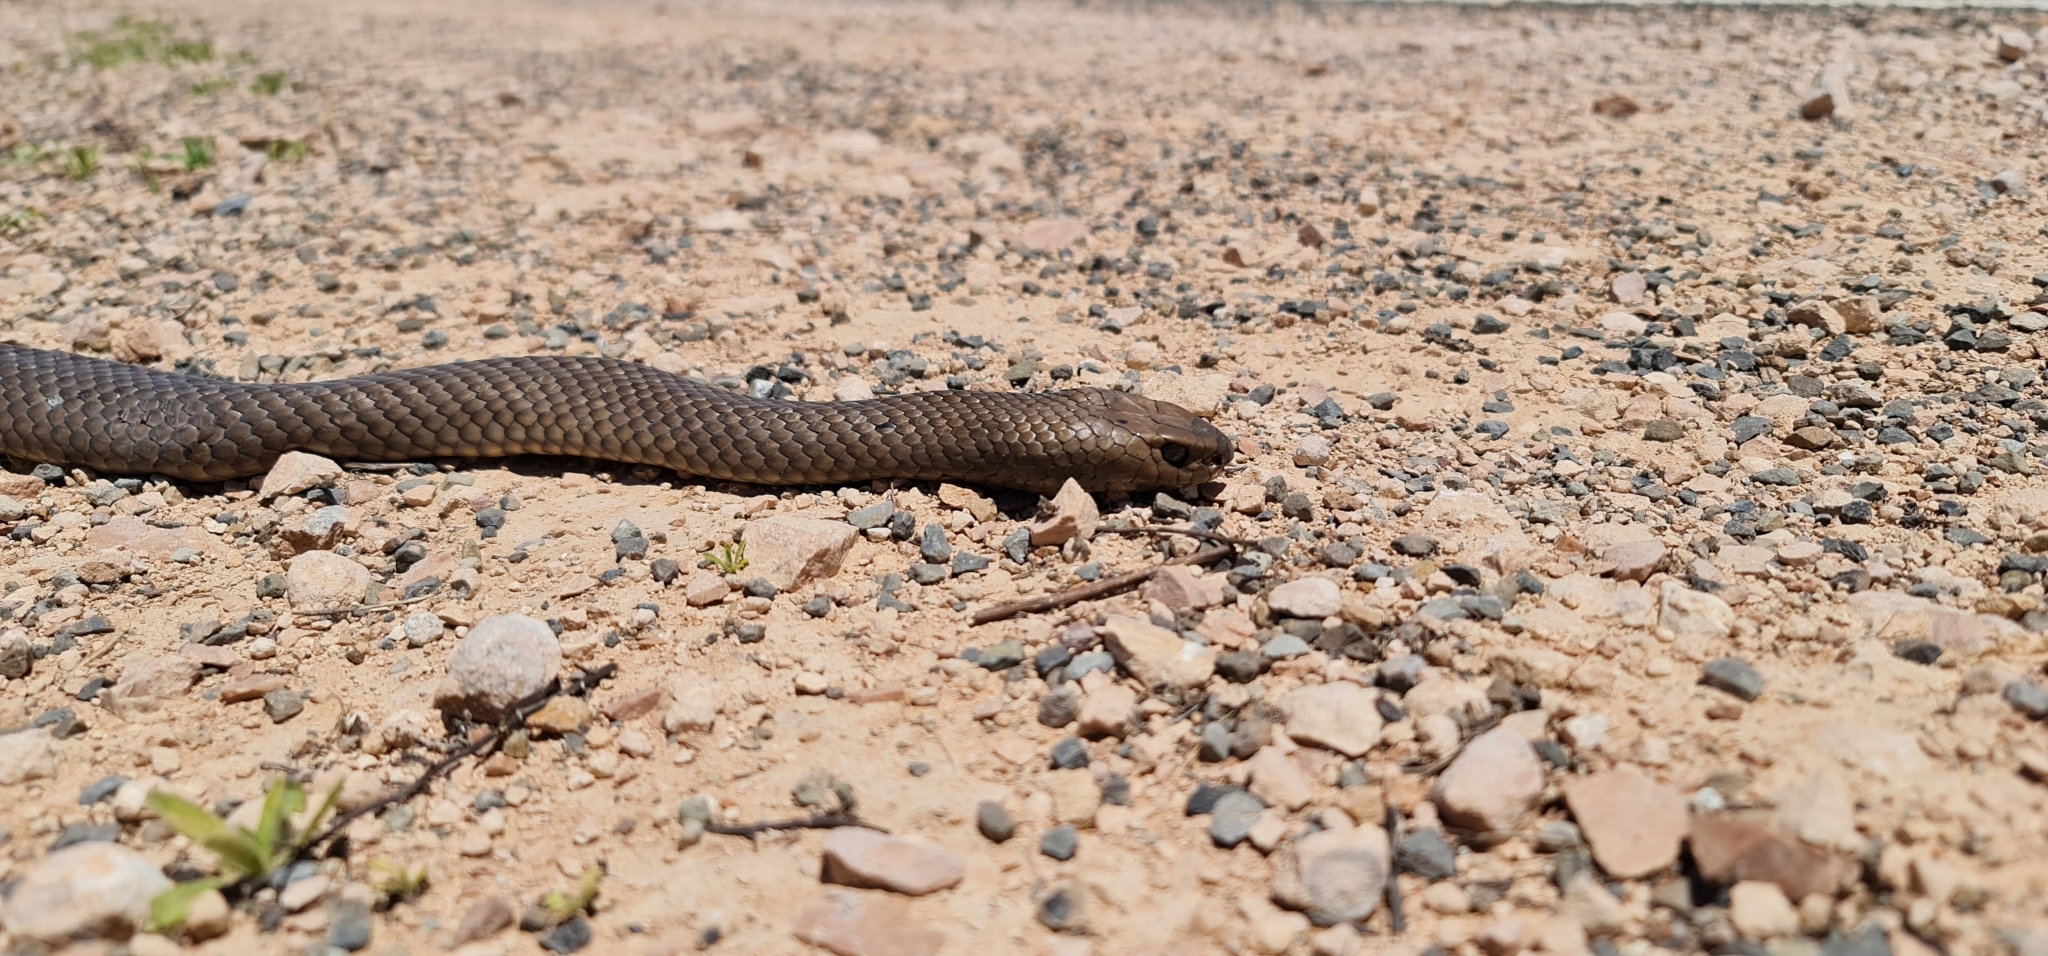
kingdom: Animalia
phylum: Chordata
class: Squamata
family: Elapidae
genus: Pseudonaja
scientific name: Pseudonaja textilis
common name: Eastern brown snake
